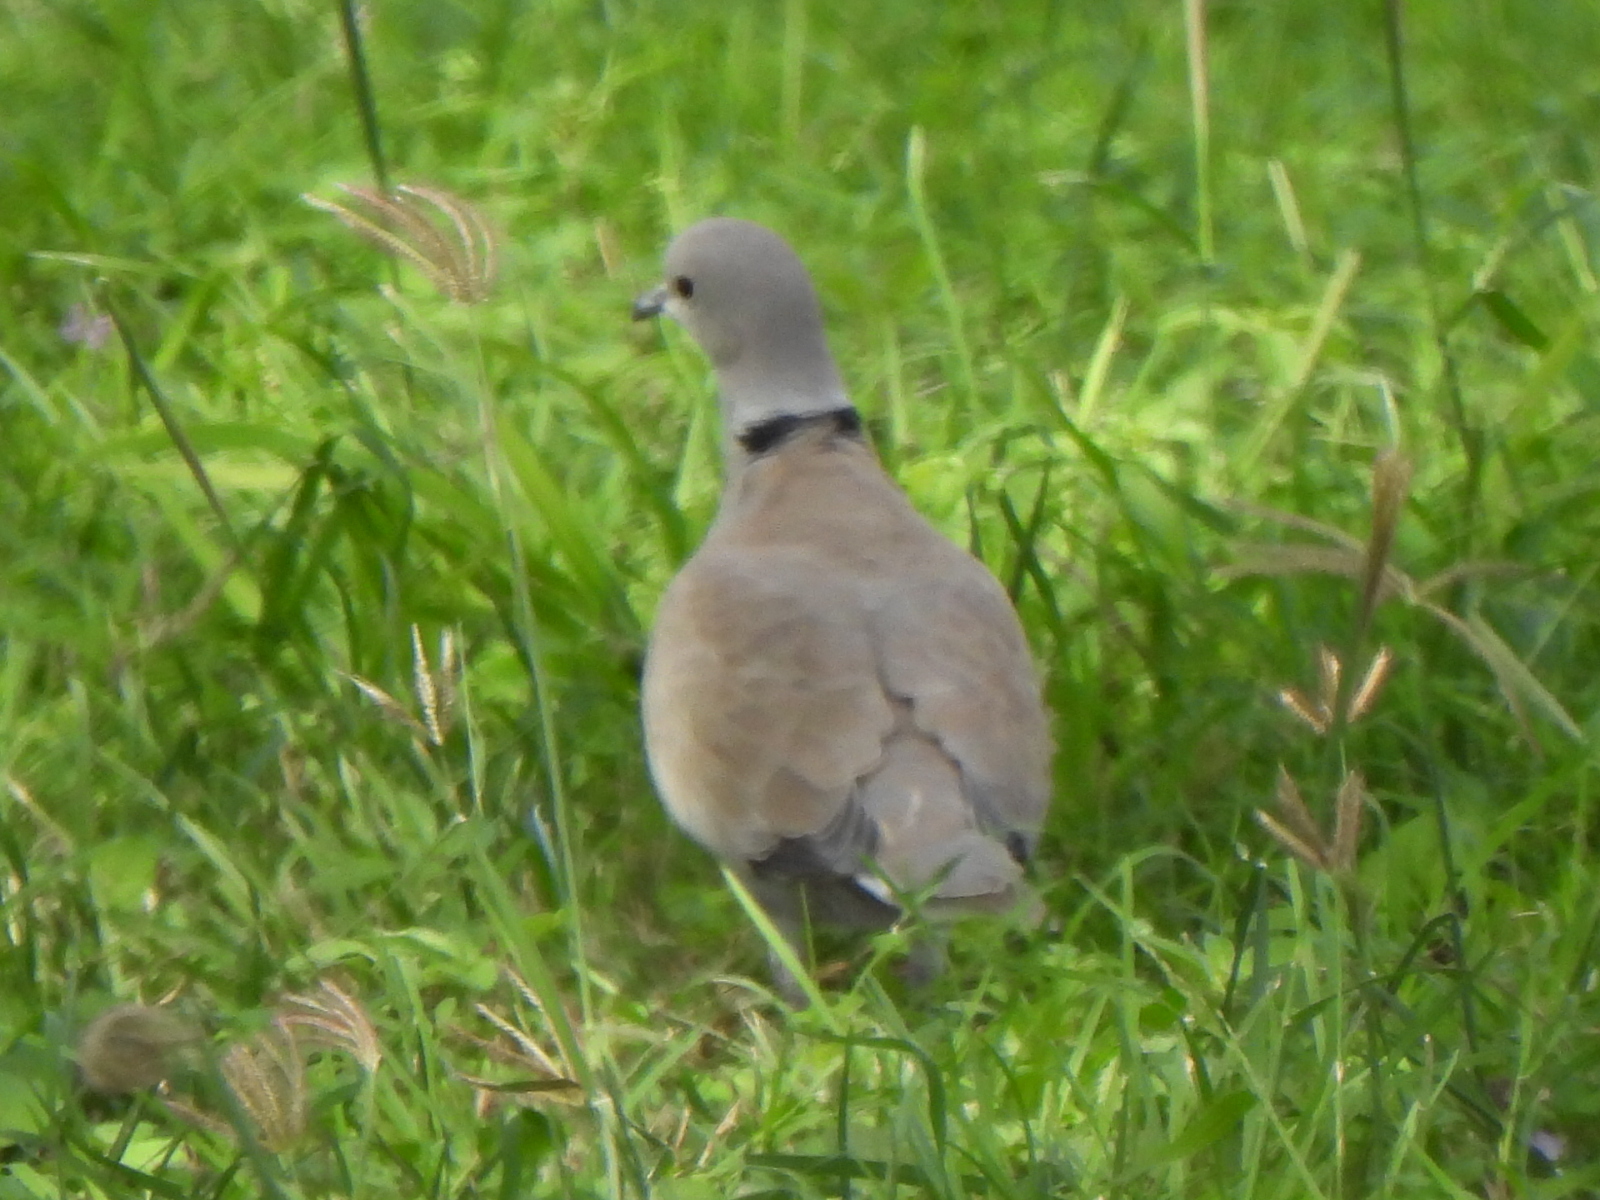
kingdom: Animalia
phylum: Chordata
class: Aves
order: Columbiformes
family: Columbidae
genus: Streptopelia
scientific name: Streptopelia decaocto
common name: Eurasian collared dove
